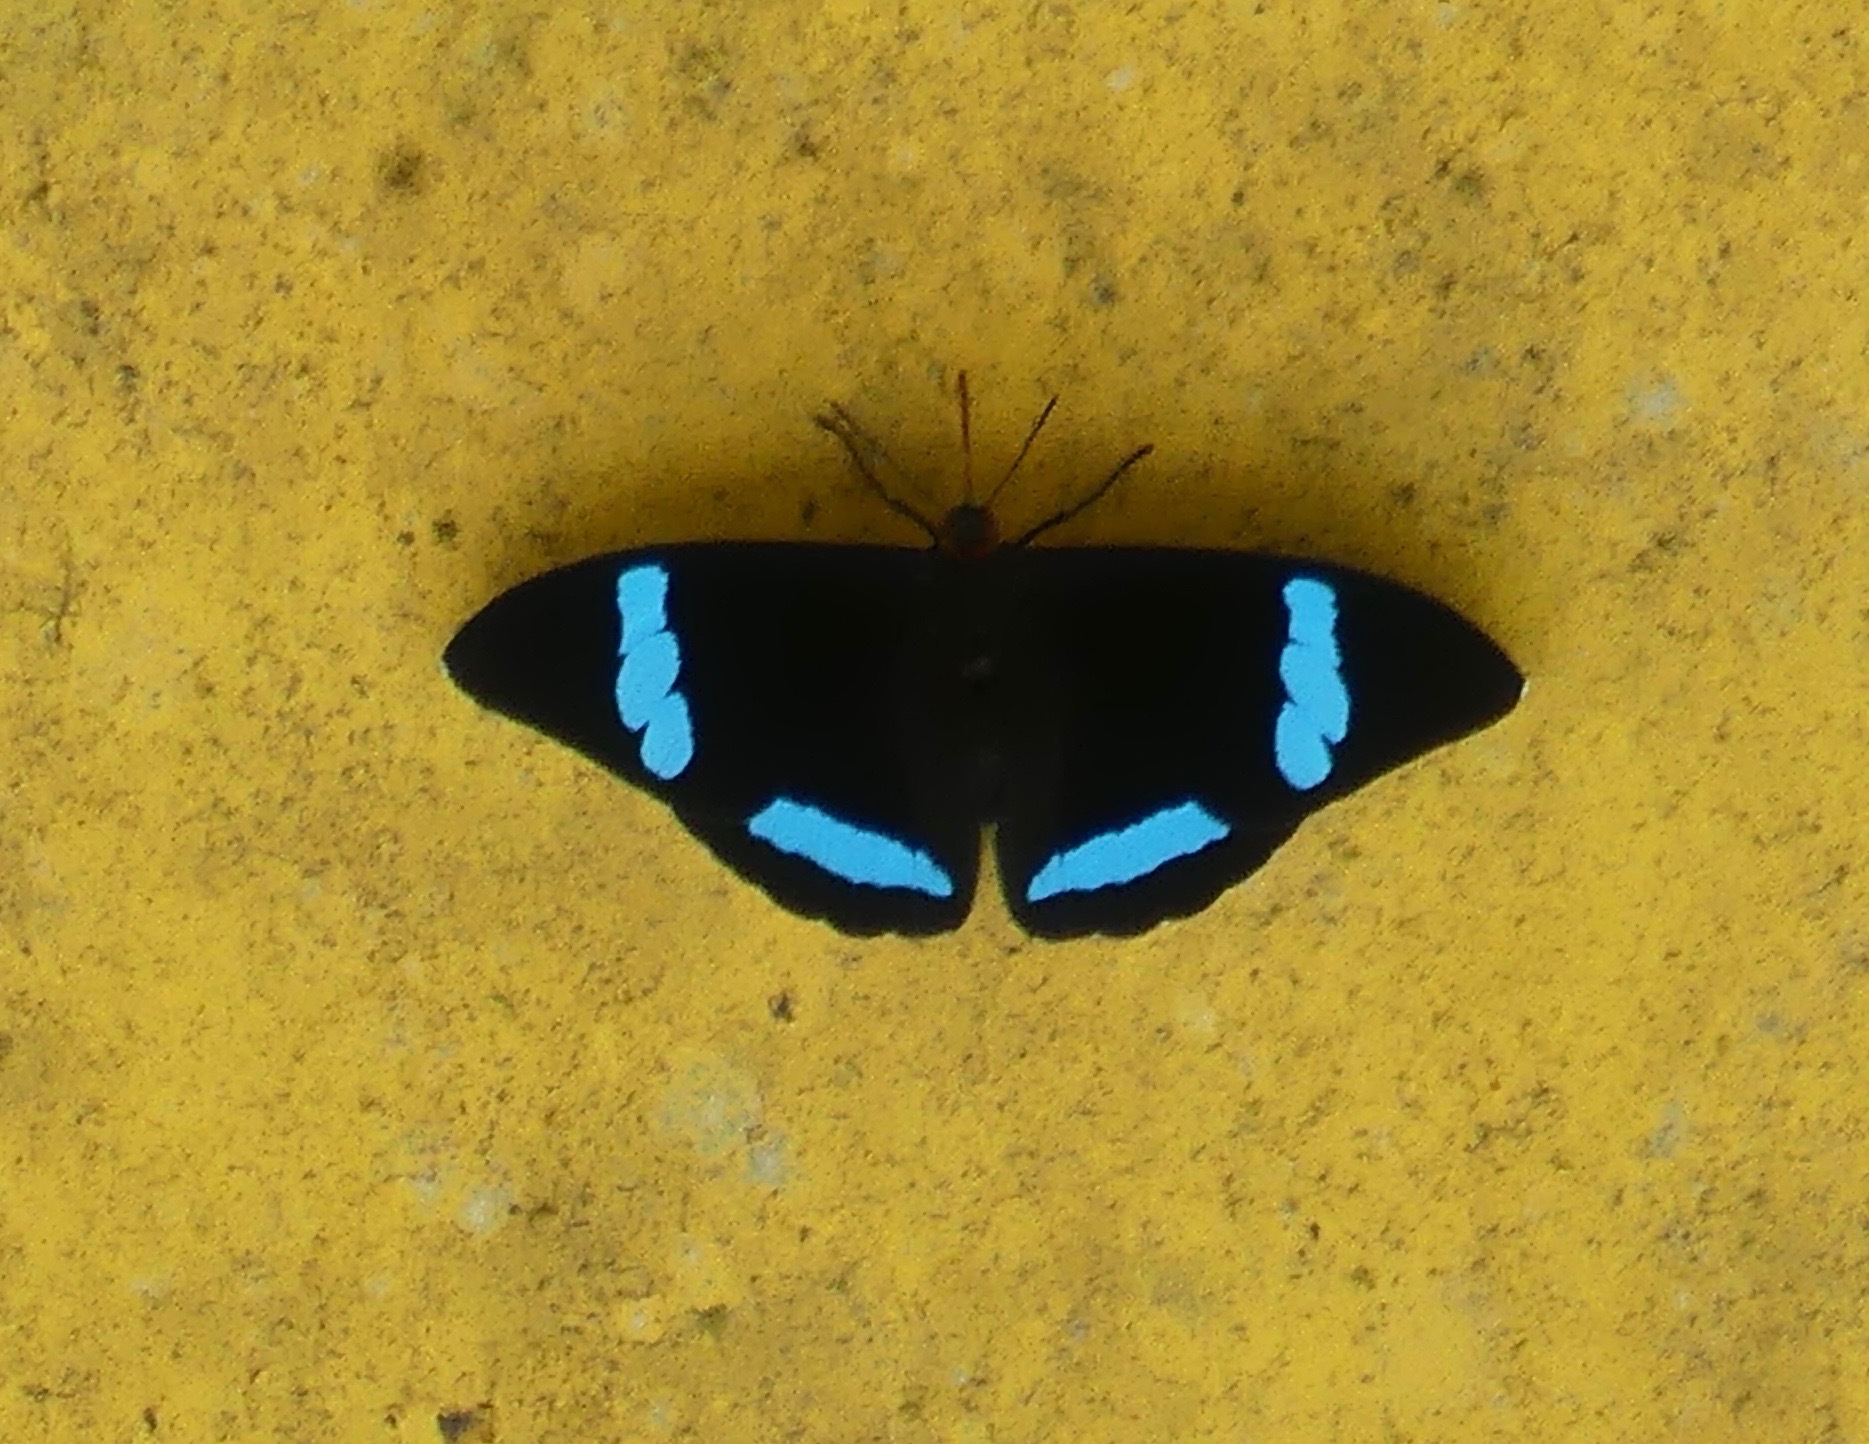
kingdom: Animalia
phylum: Arthropoda
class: Insecta
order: Lepidoptera
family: Nymphalidae
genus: Nessaea
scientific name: Nessaea hewitsonii
